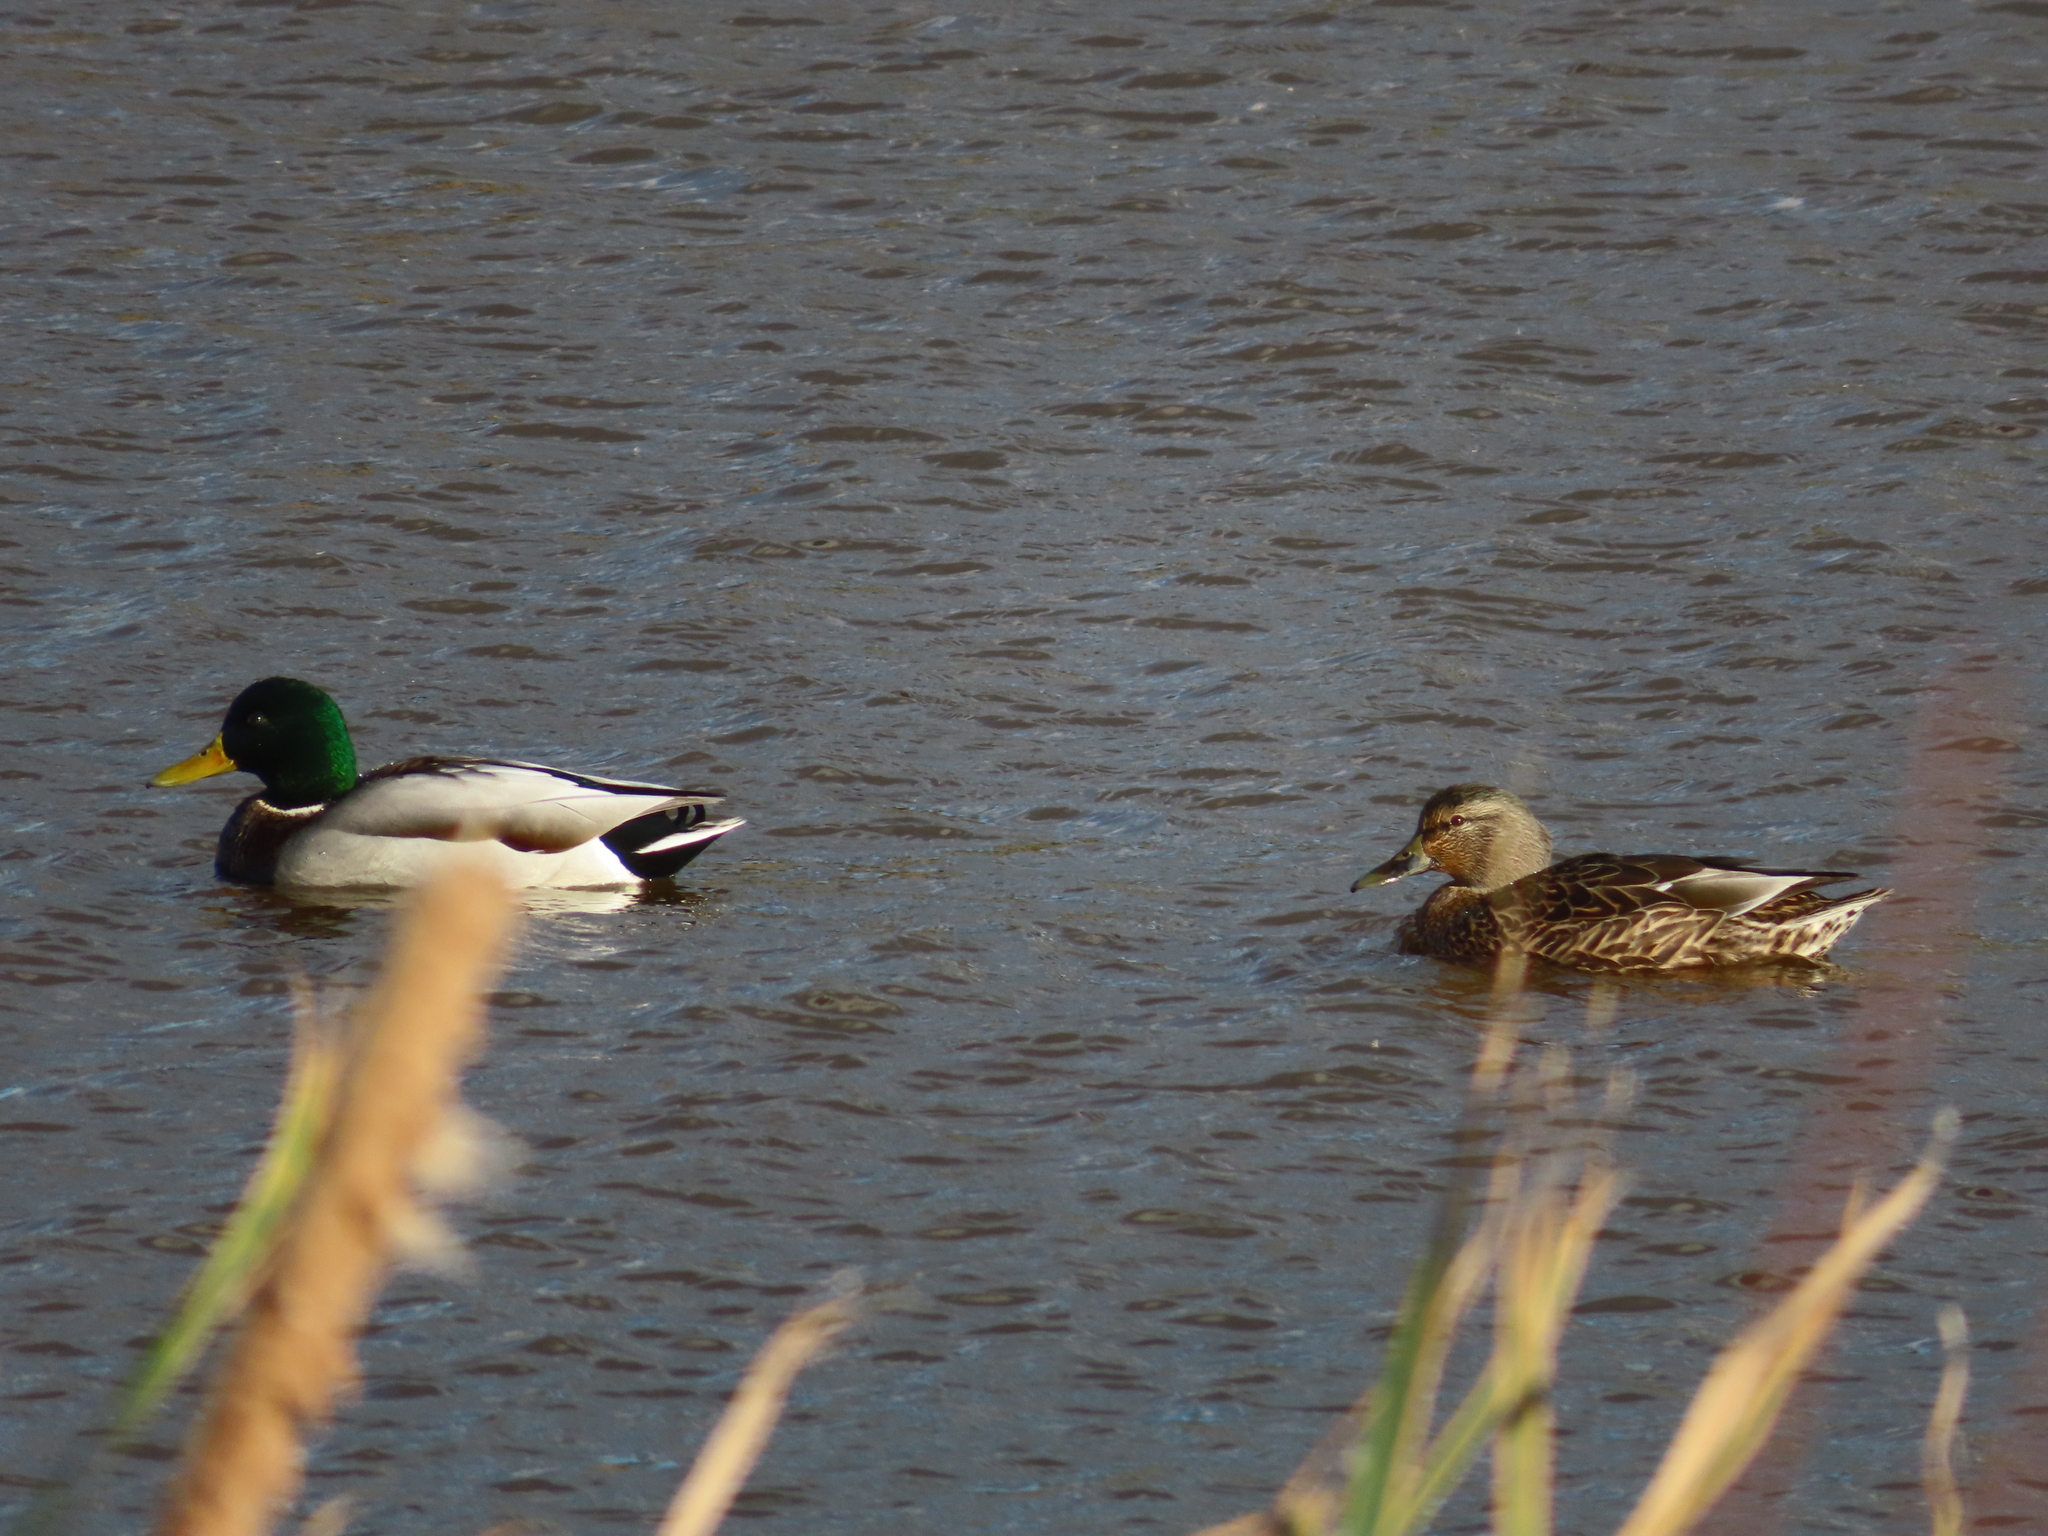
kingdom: Animalia
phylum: Chordata
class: Aves
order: Anseriformes
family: Anatidae
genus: Anas
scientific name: Anas platyrhynchos
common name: Mallard
